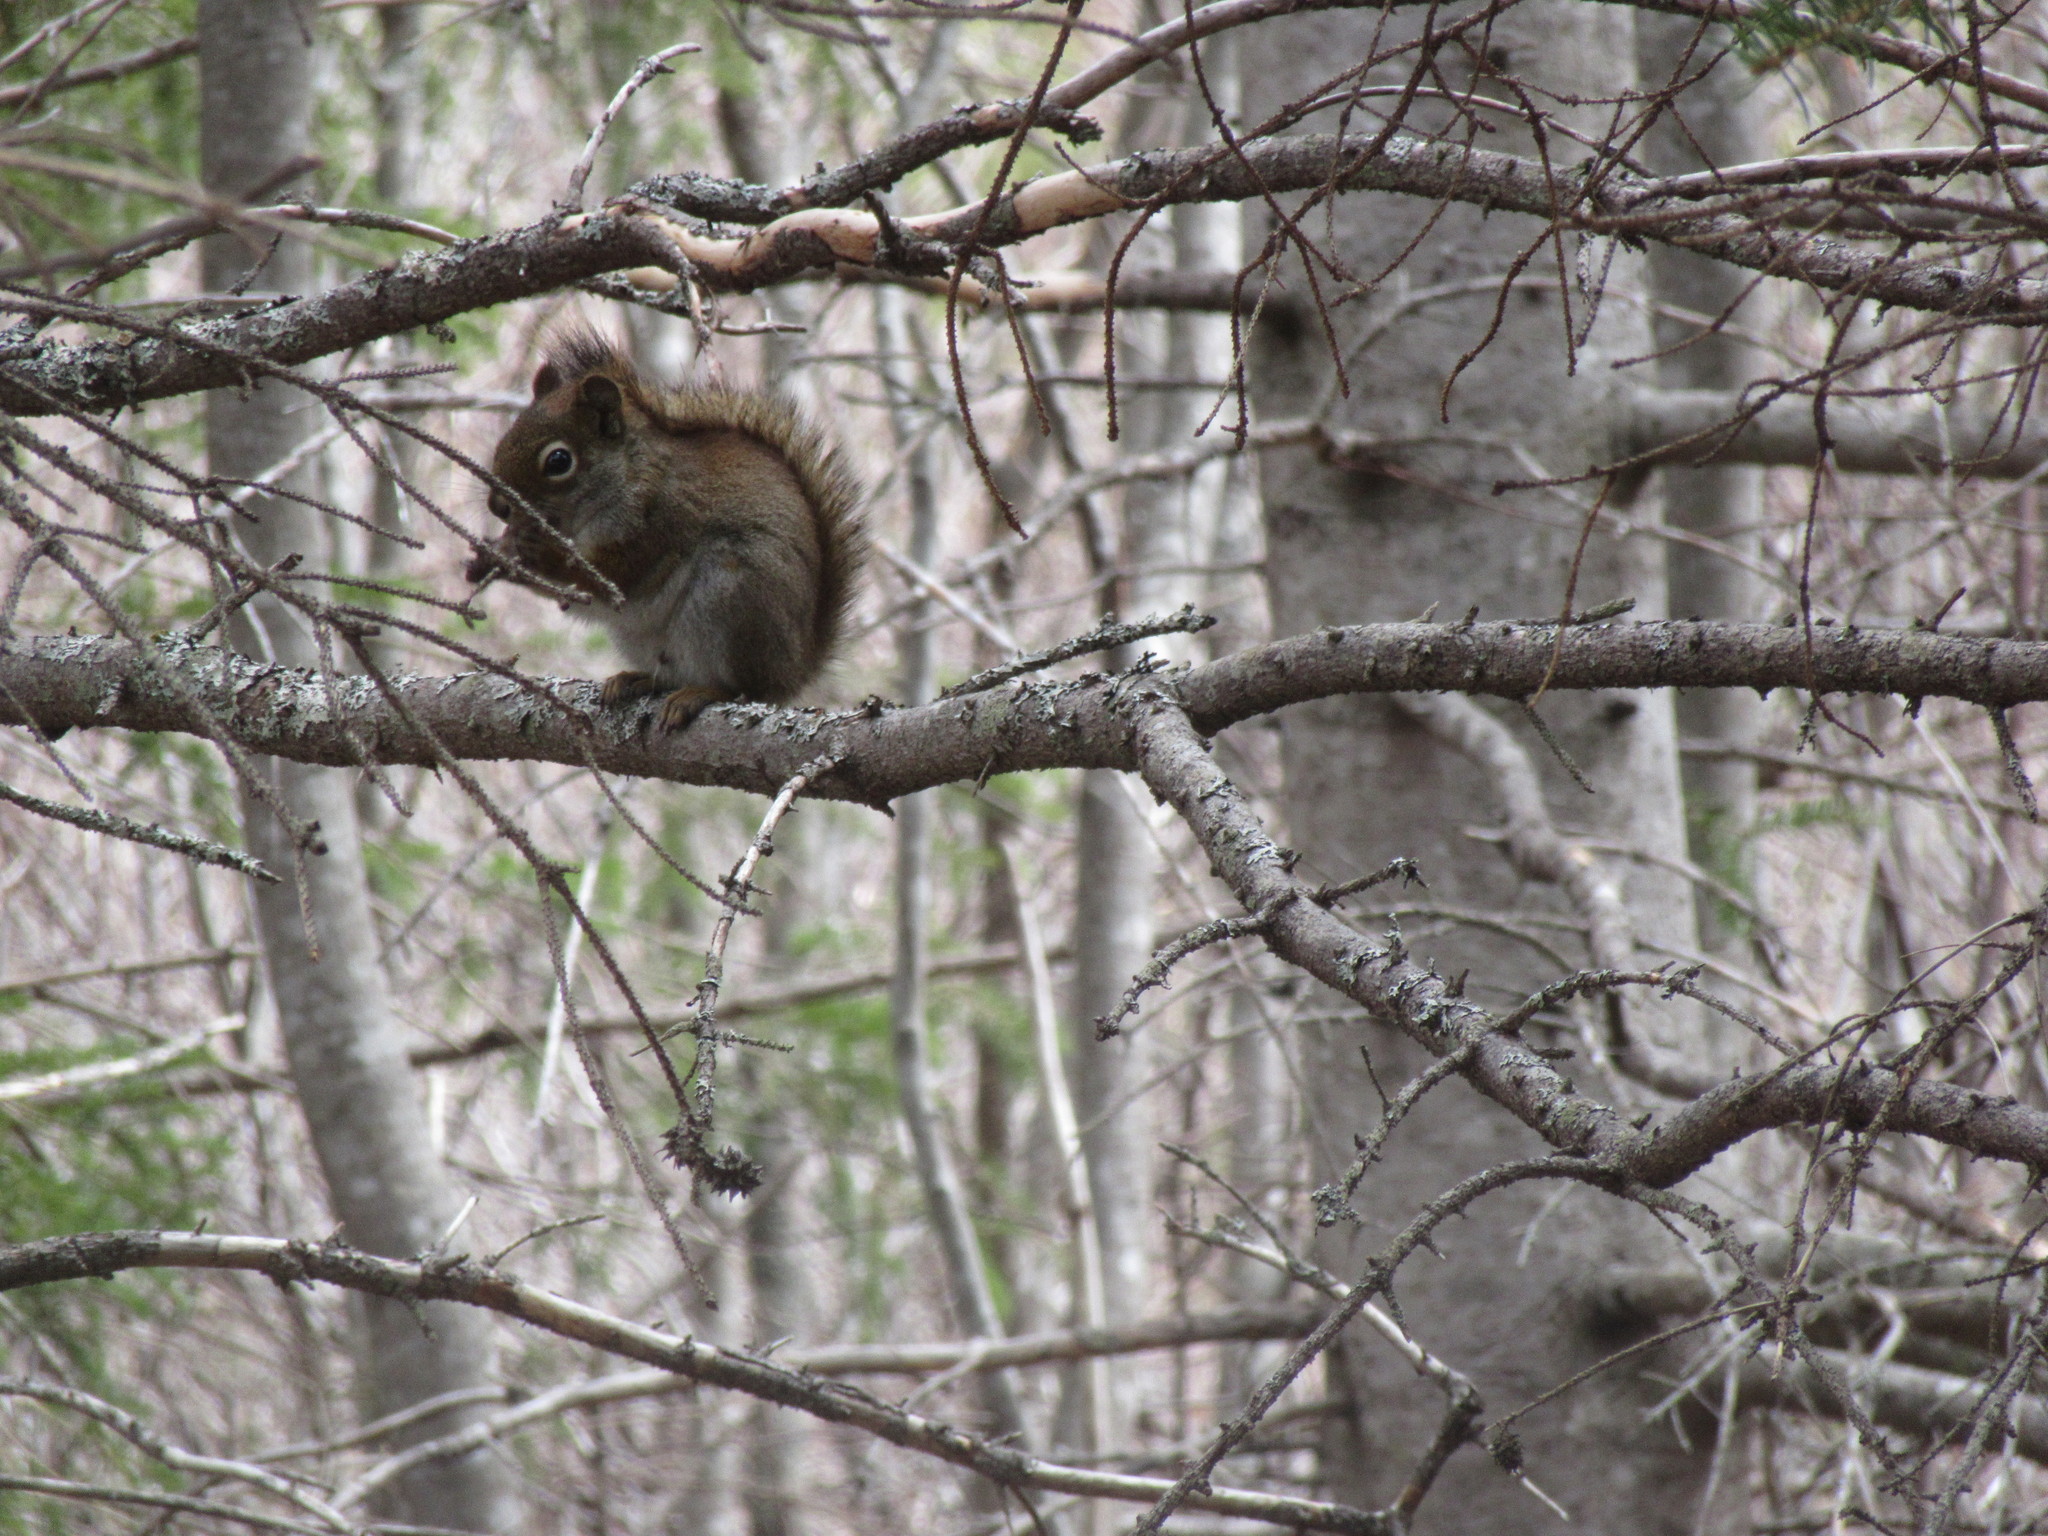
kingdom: Animalia
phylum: Chordata
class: Mammalia
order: Rodentia
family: Sciuridae
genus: Tamiasciurus
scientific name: Tamiasciurus hudsonicus
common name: Red squirrel
